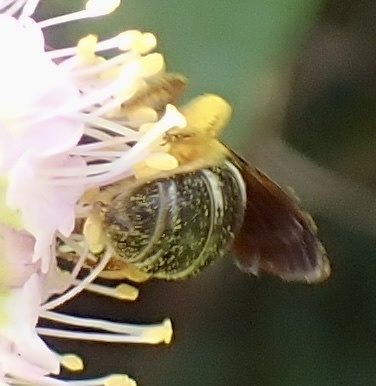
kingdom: Animalia
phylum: Arthropoda
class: Insecta
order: Hymenoptera
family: Halictidae
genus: Halictus
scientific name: Halictus parallelus
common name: Parallel-striped sweat bee
